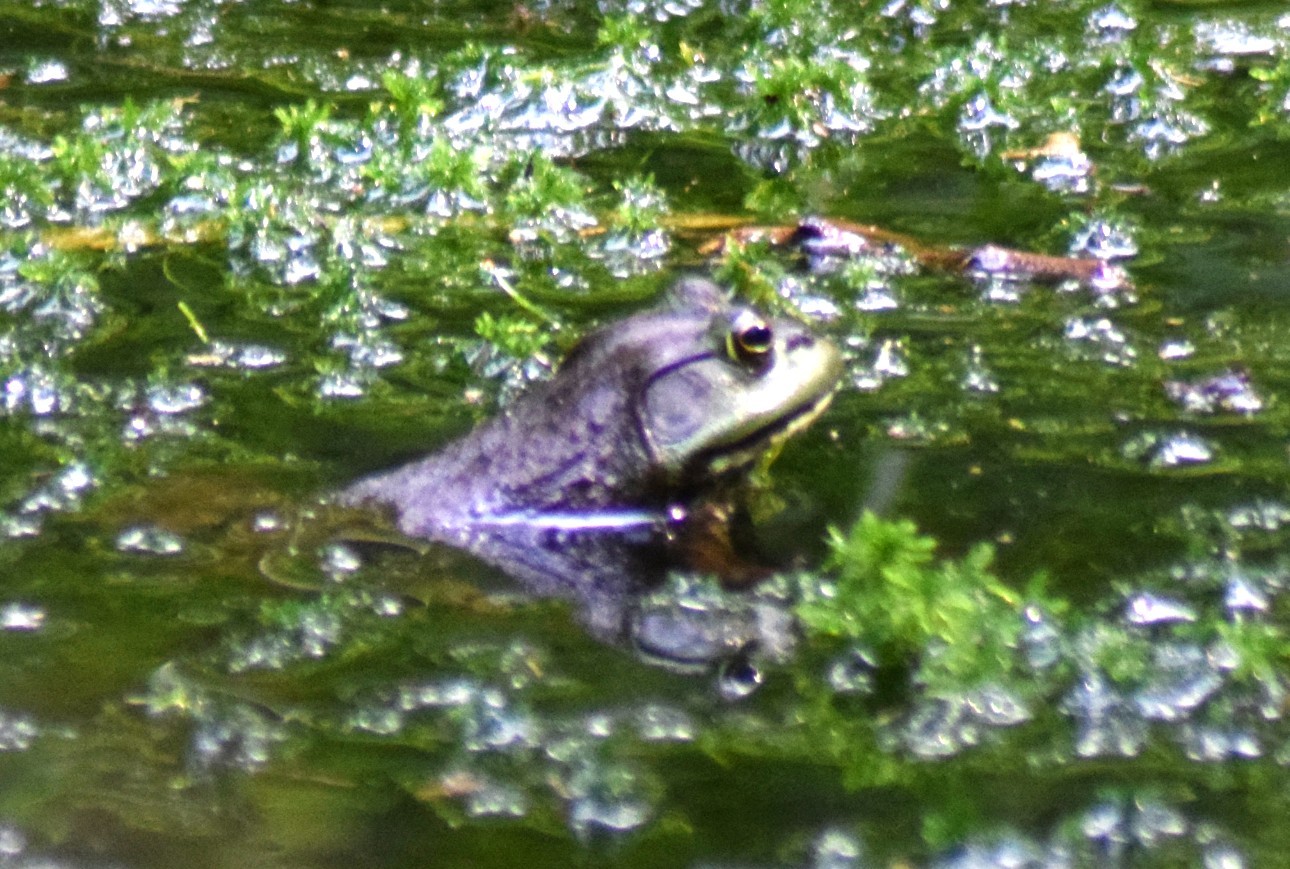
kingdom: Animalia
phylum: Chordata
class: Amphibia
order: Anura
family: Ranidae
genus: Lithobates
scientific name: Lithobates catesbeianus
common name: American bullfrog
